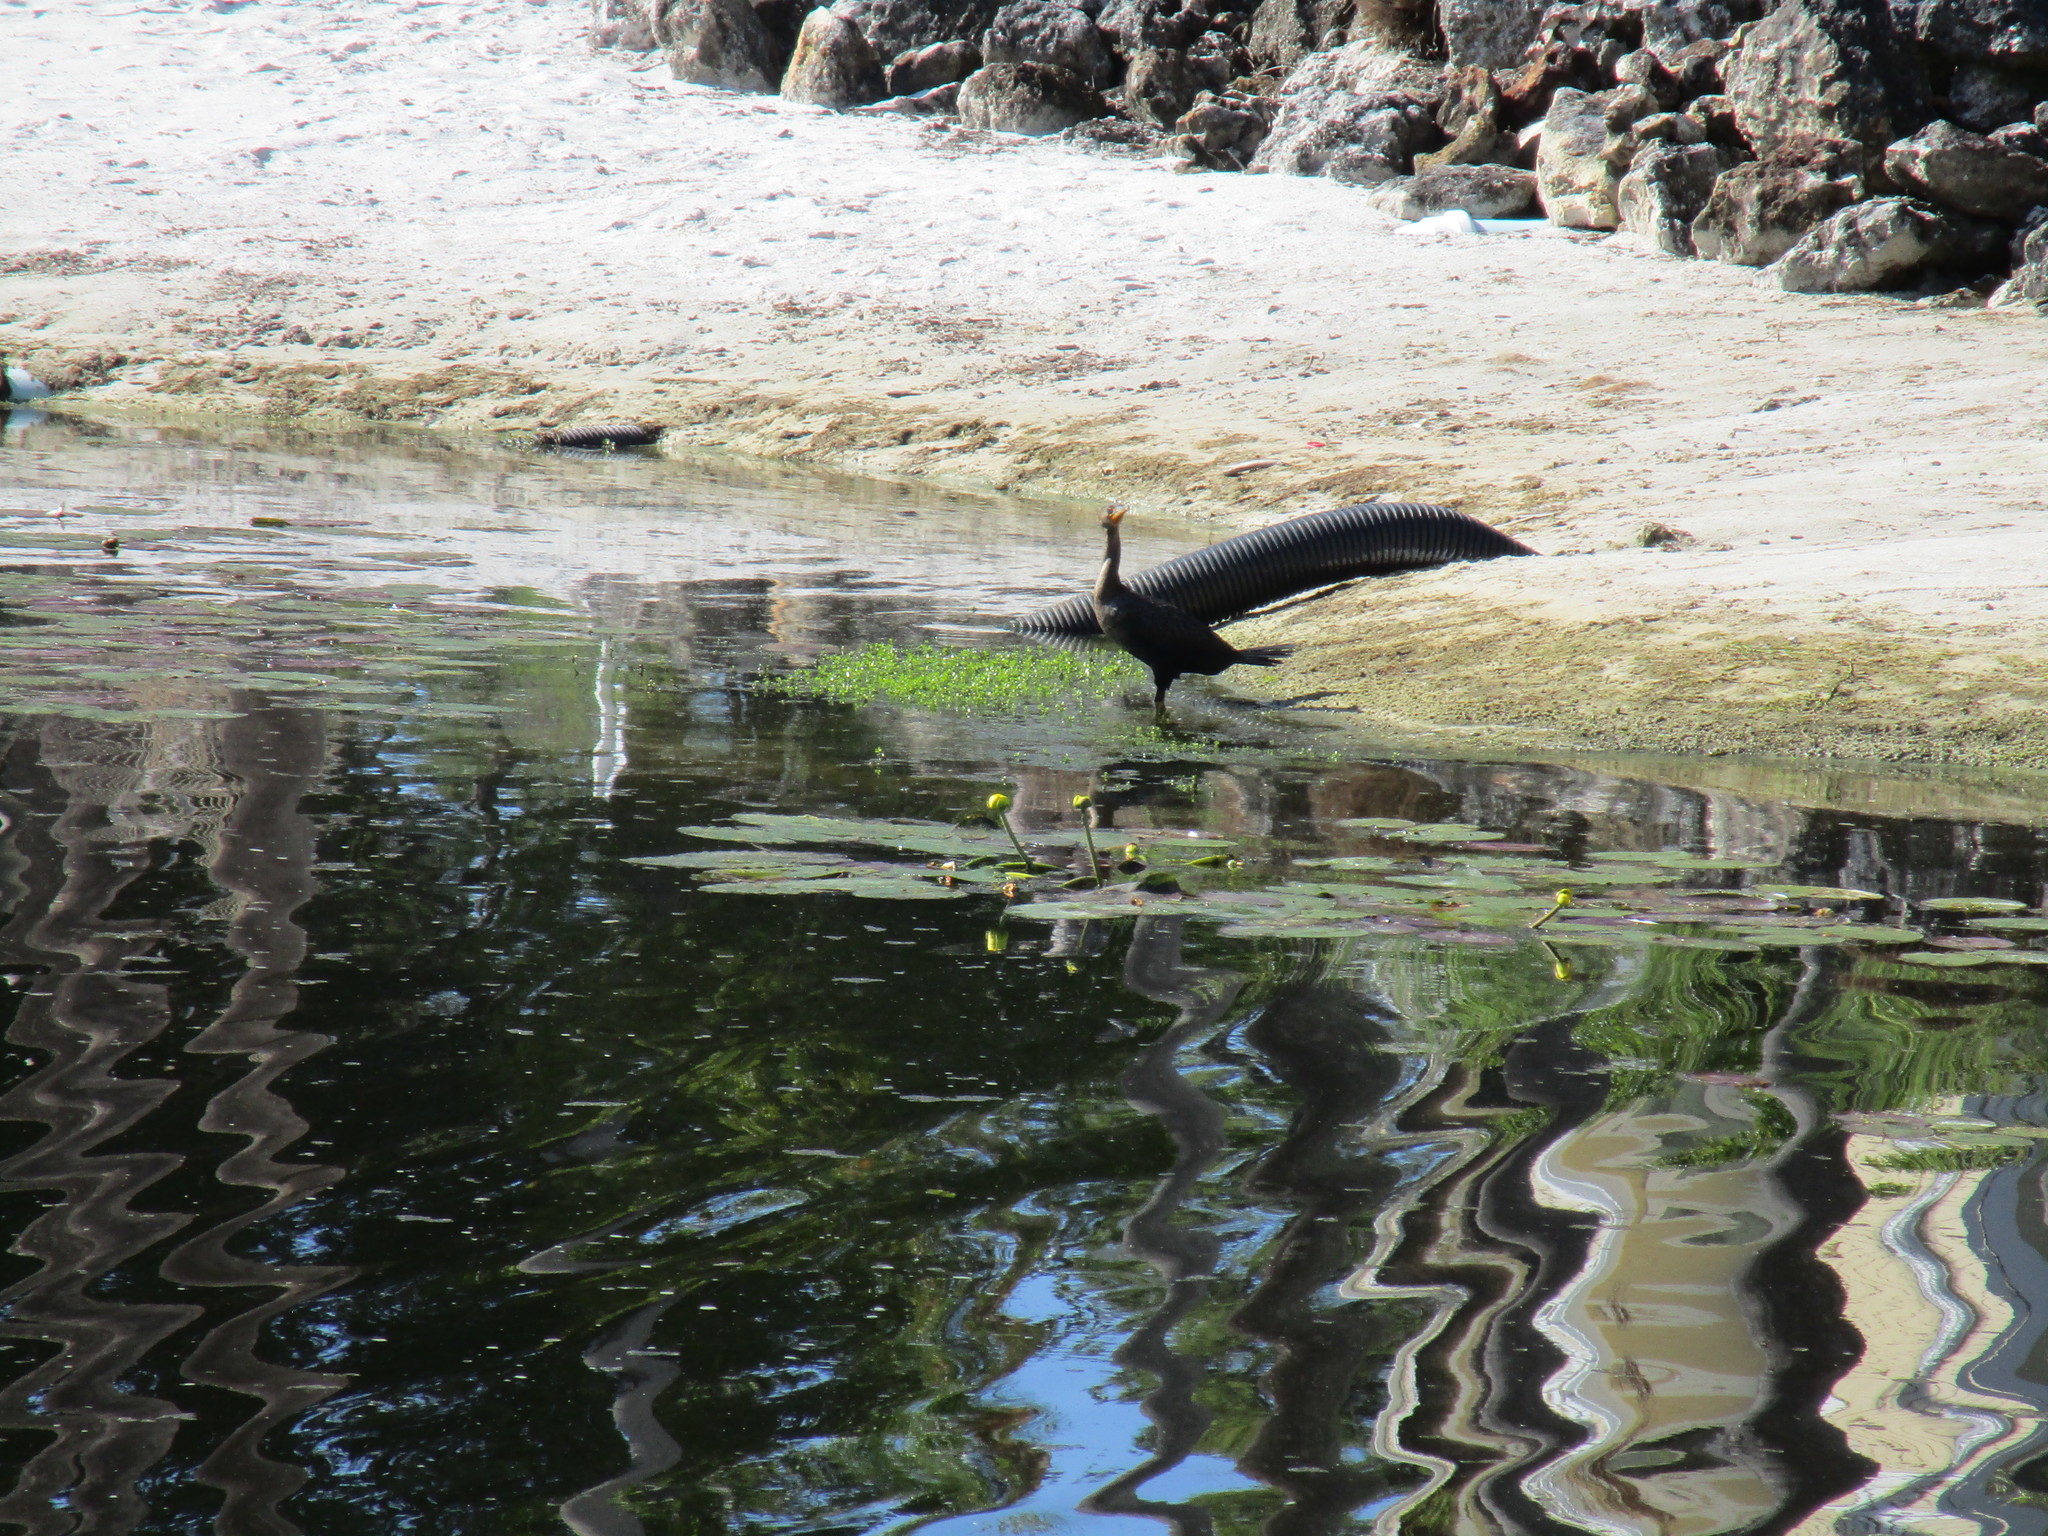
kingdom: Animalia
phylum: Chordata
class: Aves
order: Suliformes
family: Phalacrocoracidae
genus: Phalacrocorax
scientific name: Phalacrocorax auritus
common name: Double-crested cormorant
